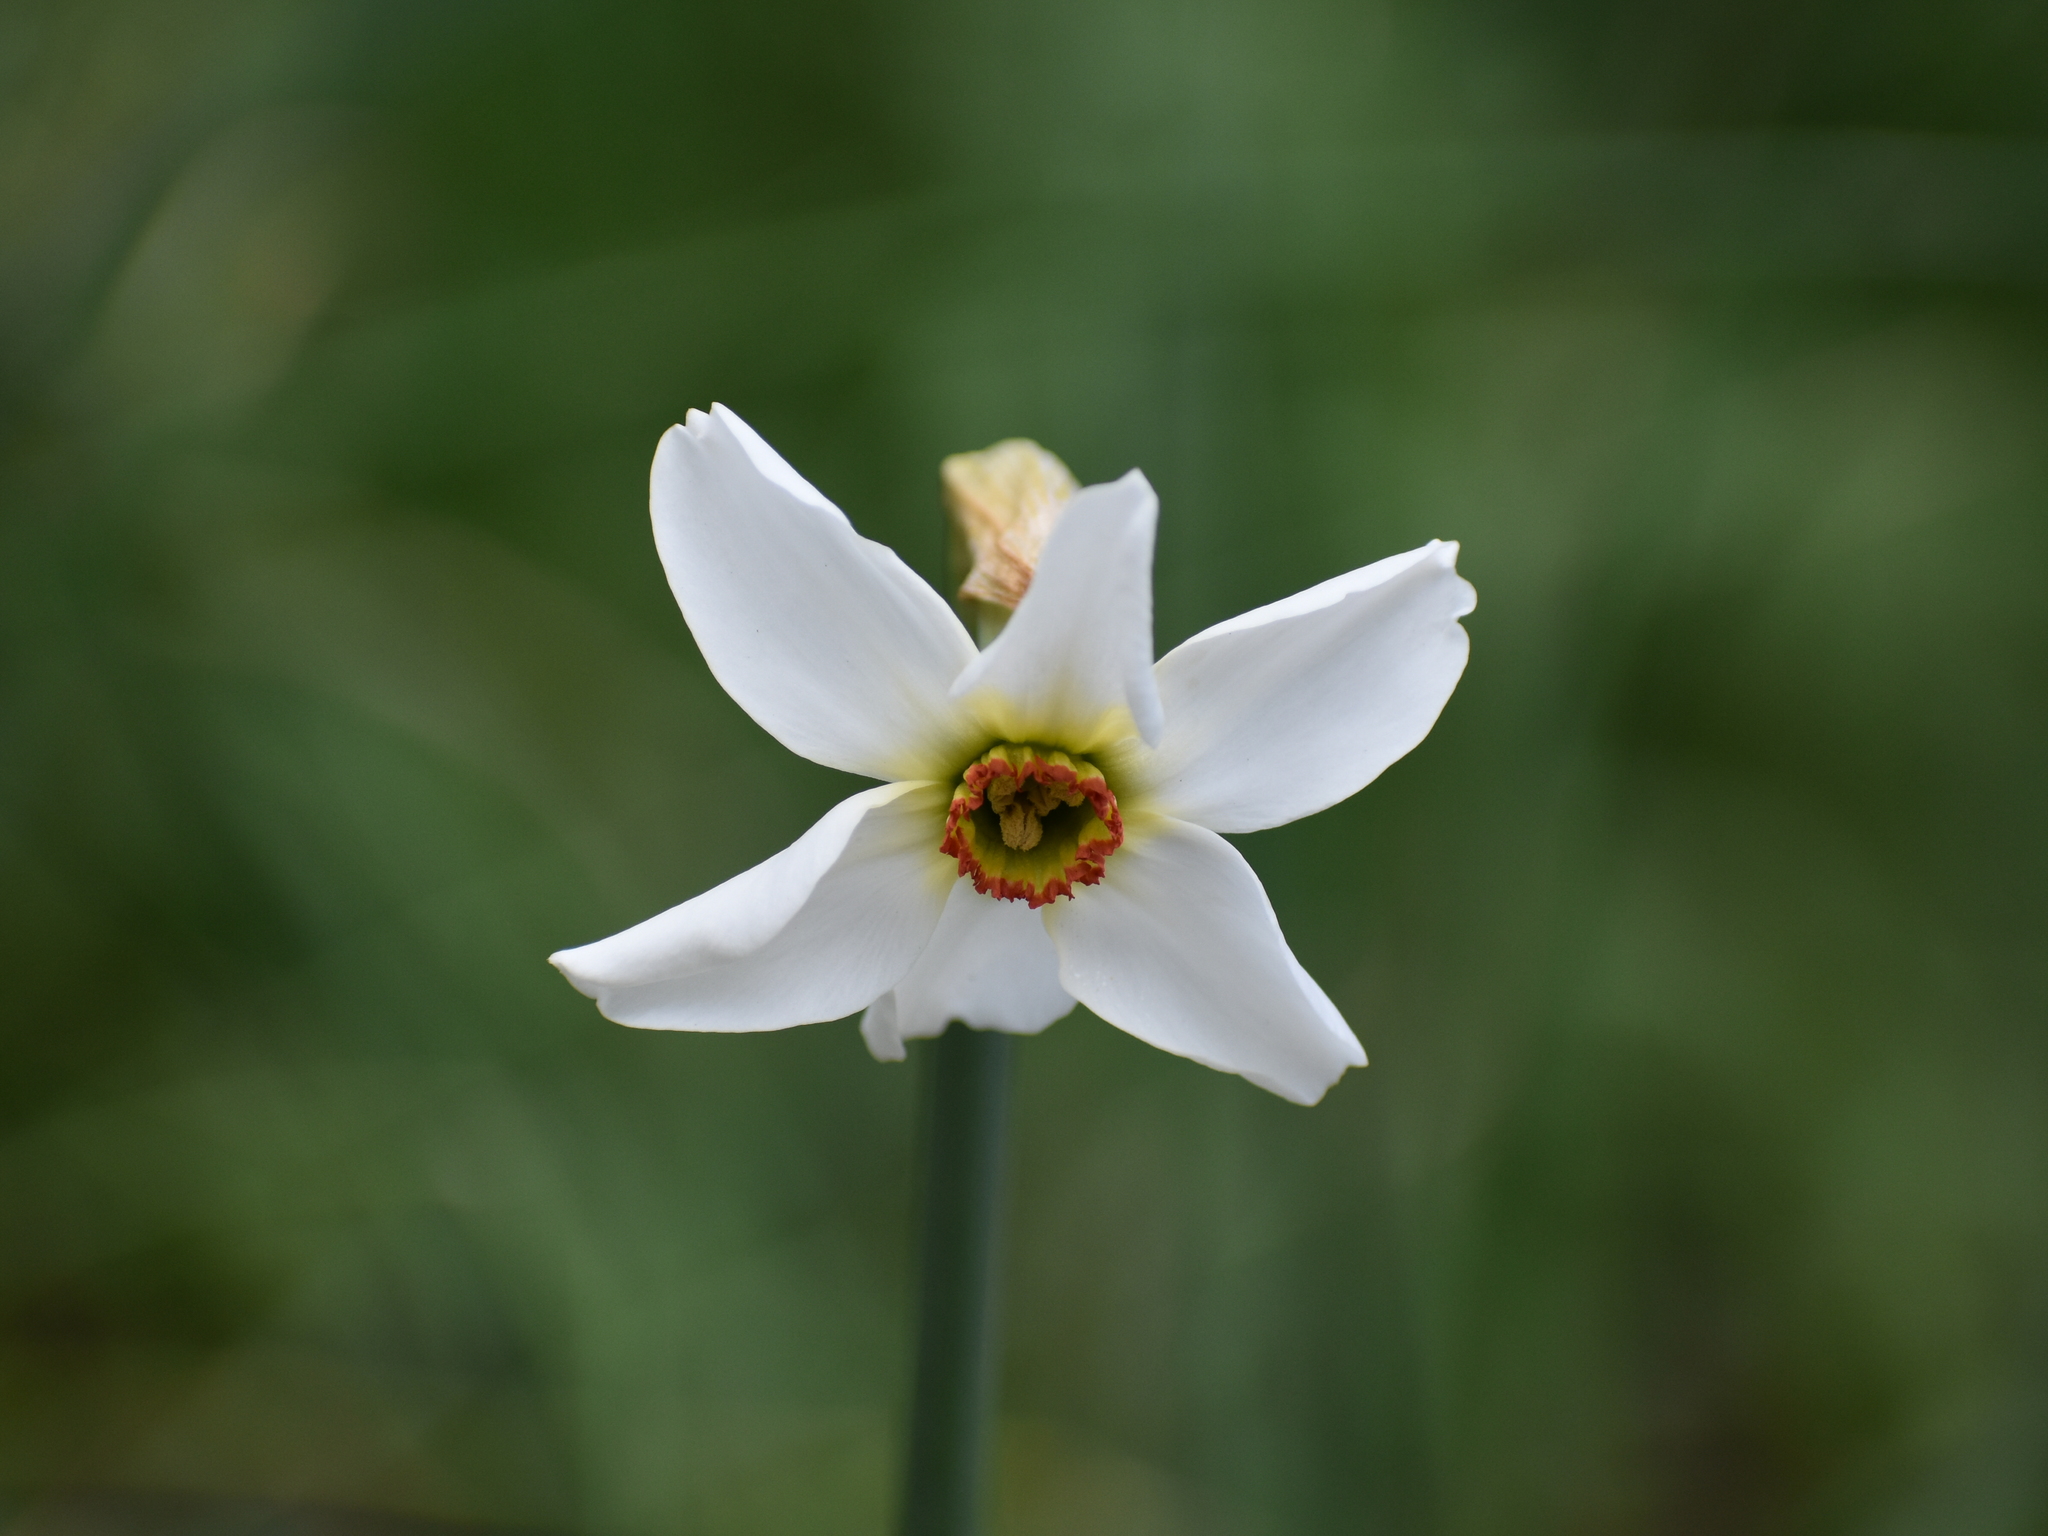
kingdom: Plantae
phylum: Tracheophyta
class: Liliopsida
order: Asparagales
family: Amaryllidaceae
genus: Narcissus
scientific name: Narcissus poeticus
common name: Pheasant's-eye daffodil
